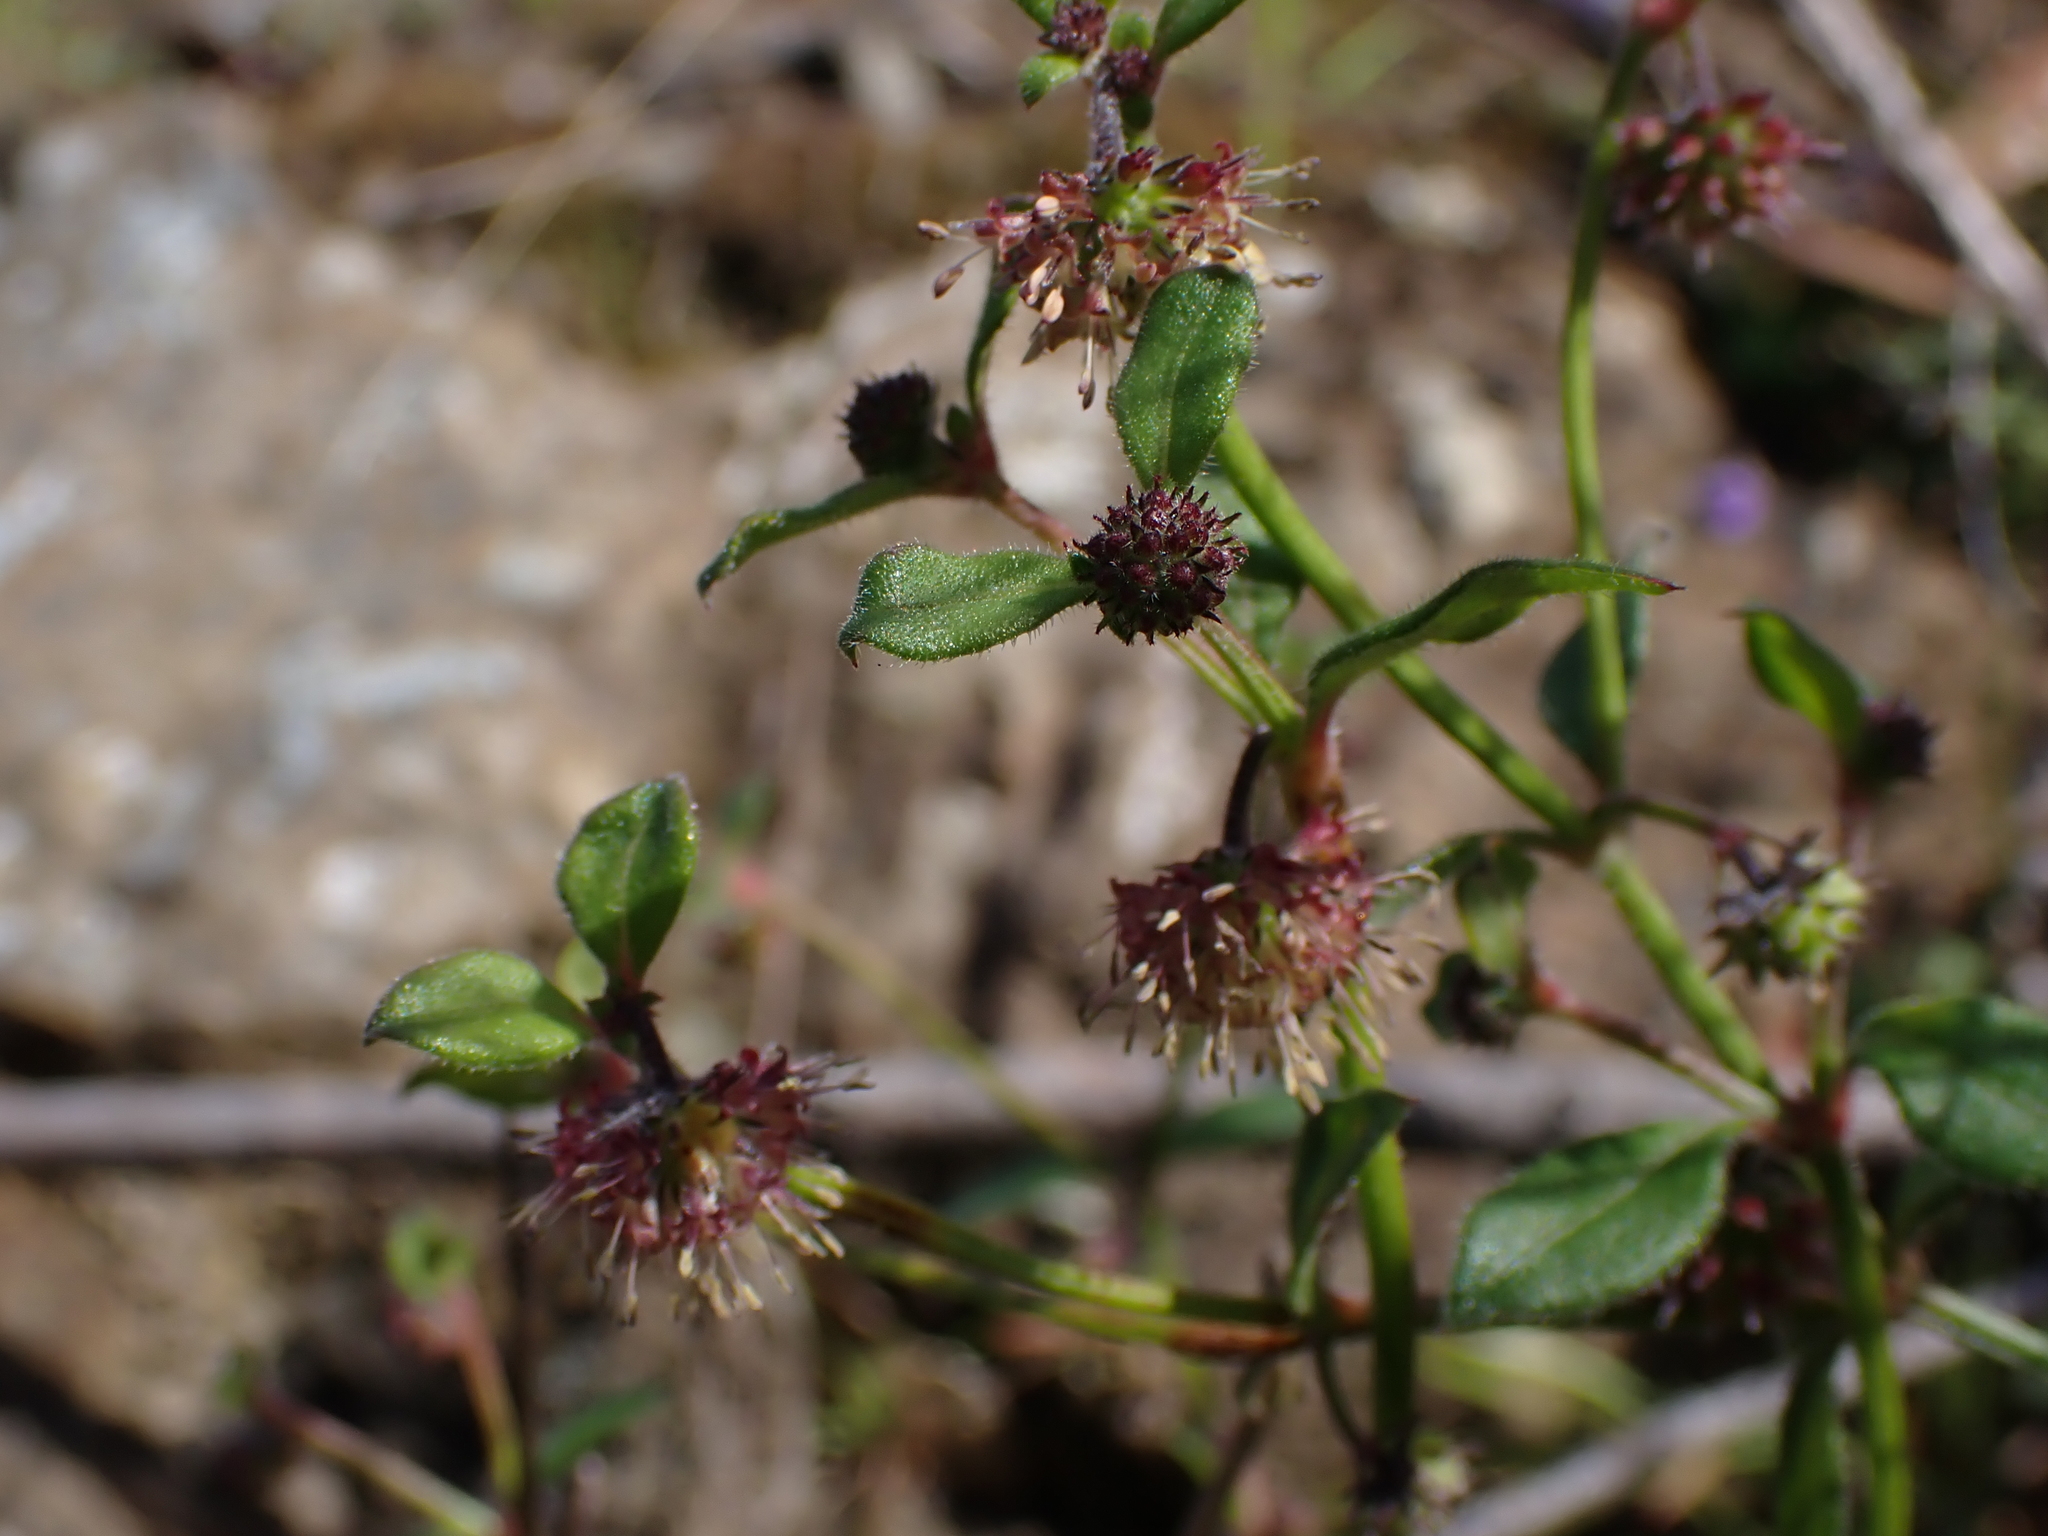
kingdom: Plantae
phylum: Tracheophyta
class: Magnoliopsida
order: Gentianales
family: Rubiaceae
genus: Opercularia
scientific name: Opercularia aspera
